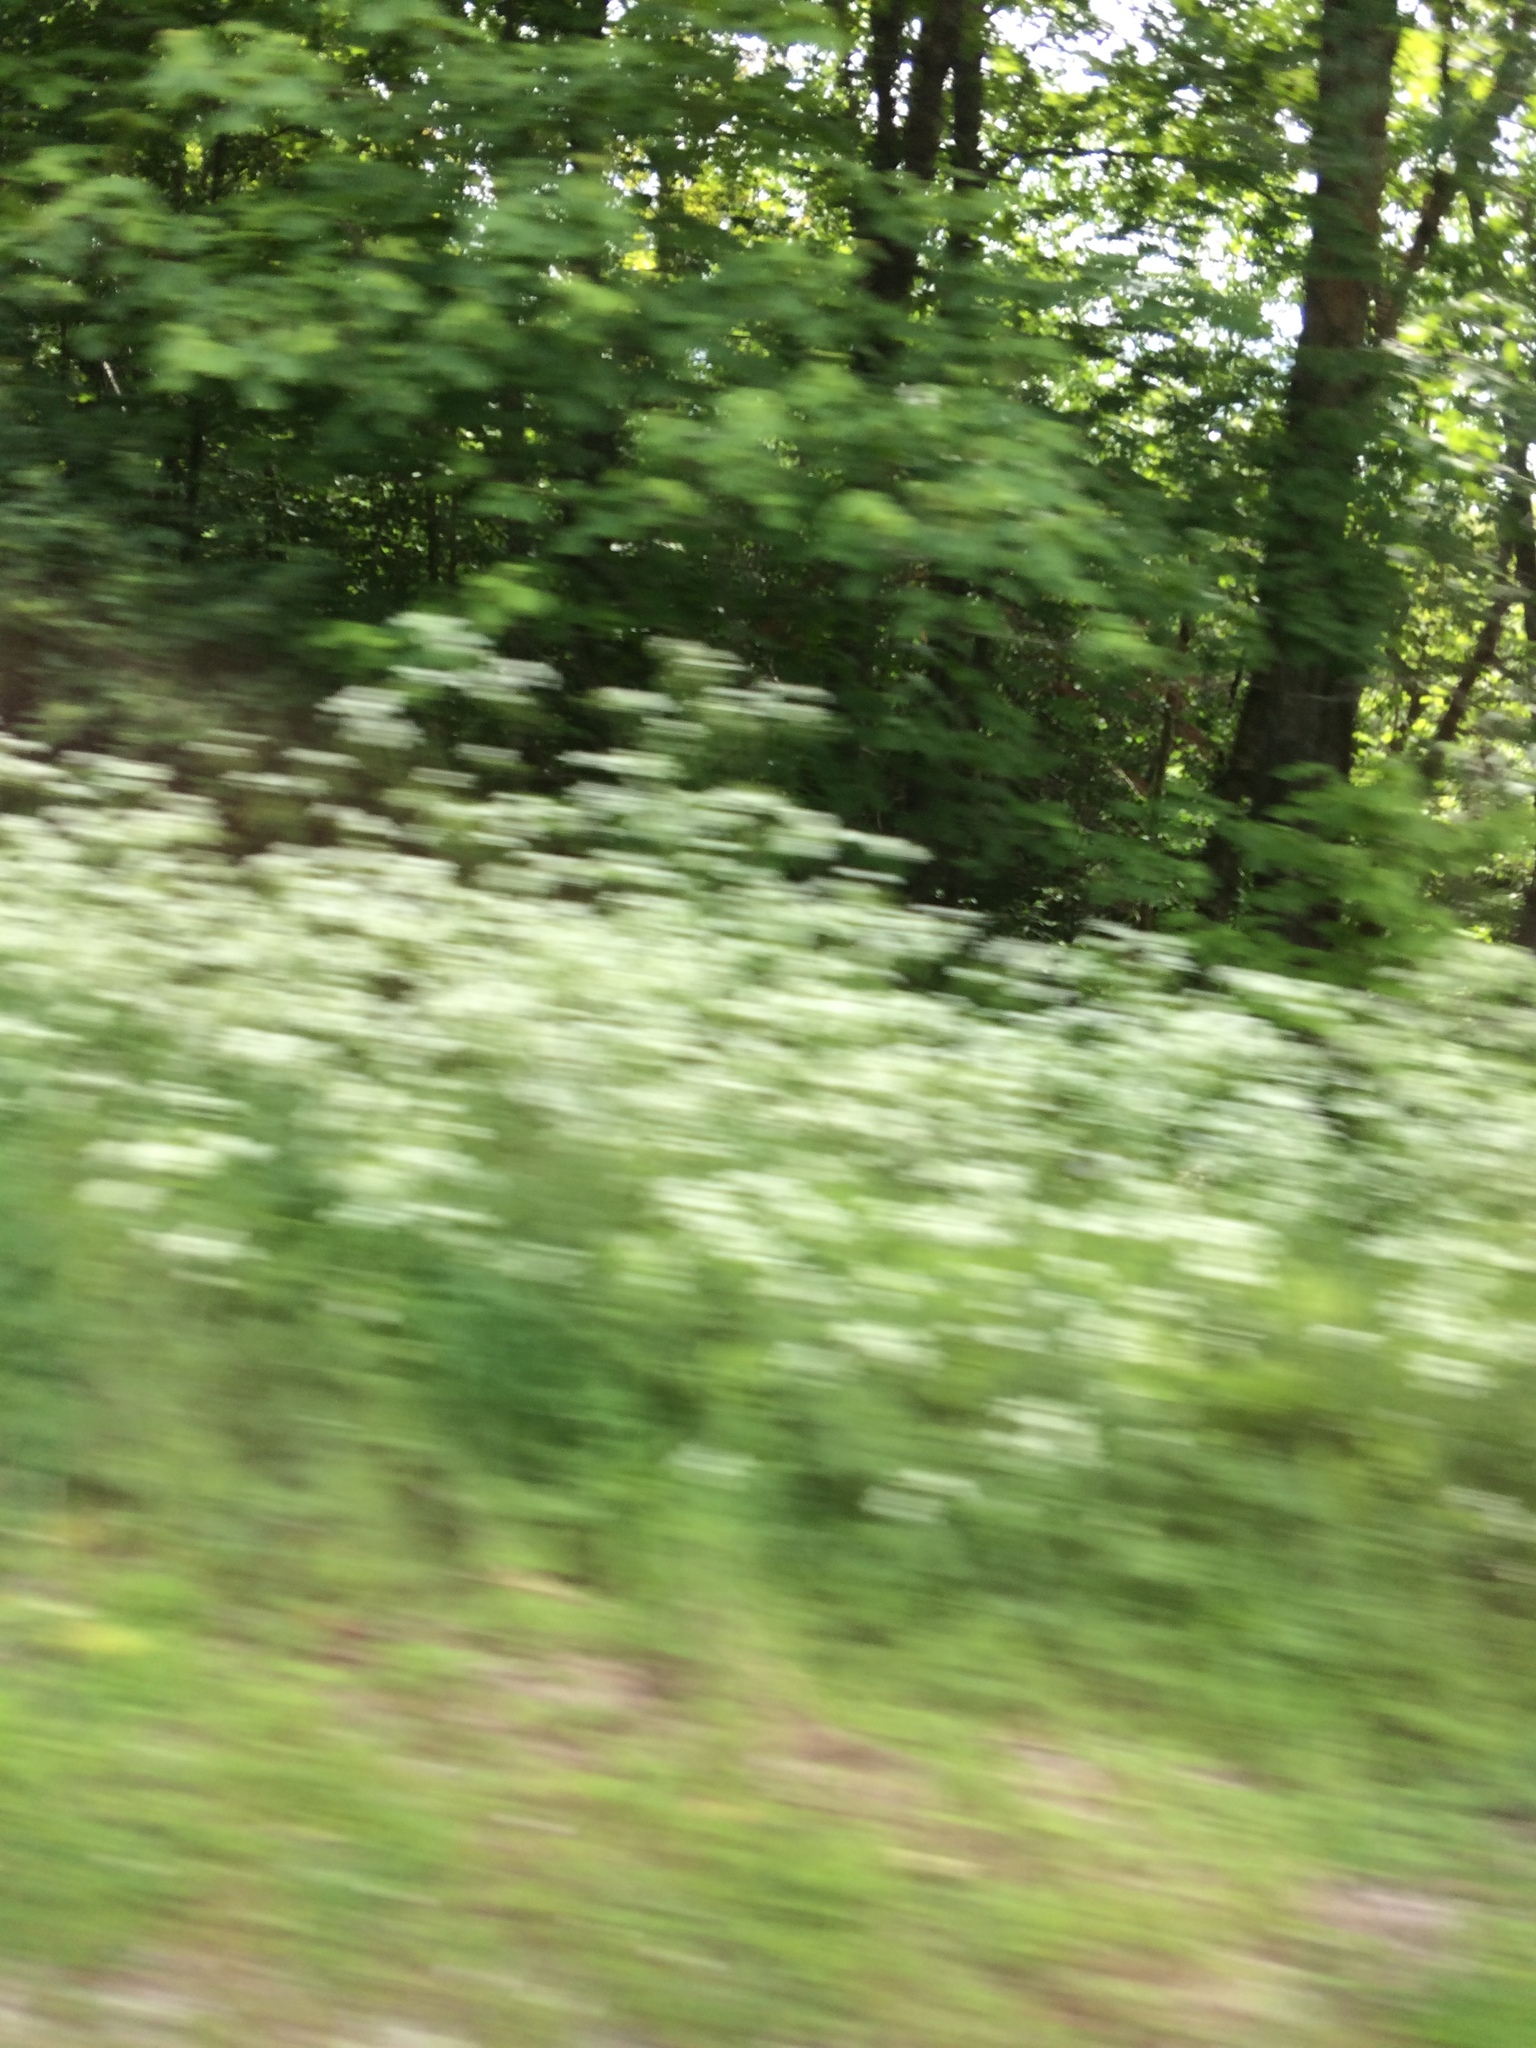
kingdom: Plantae
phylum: Tracheophyta
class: Magnoliopsida
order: Apiales
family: Apiaceae
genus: Anthriscus
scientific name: Anthriscus sylvestris
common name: Cow parsley
